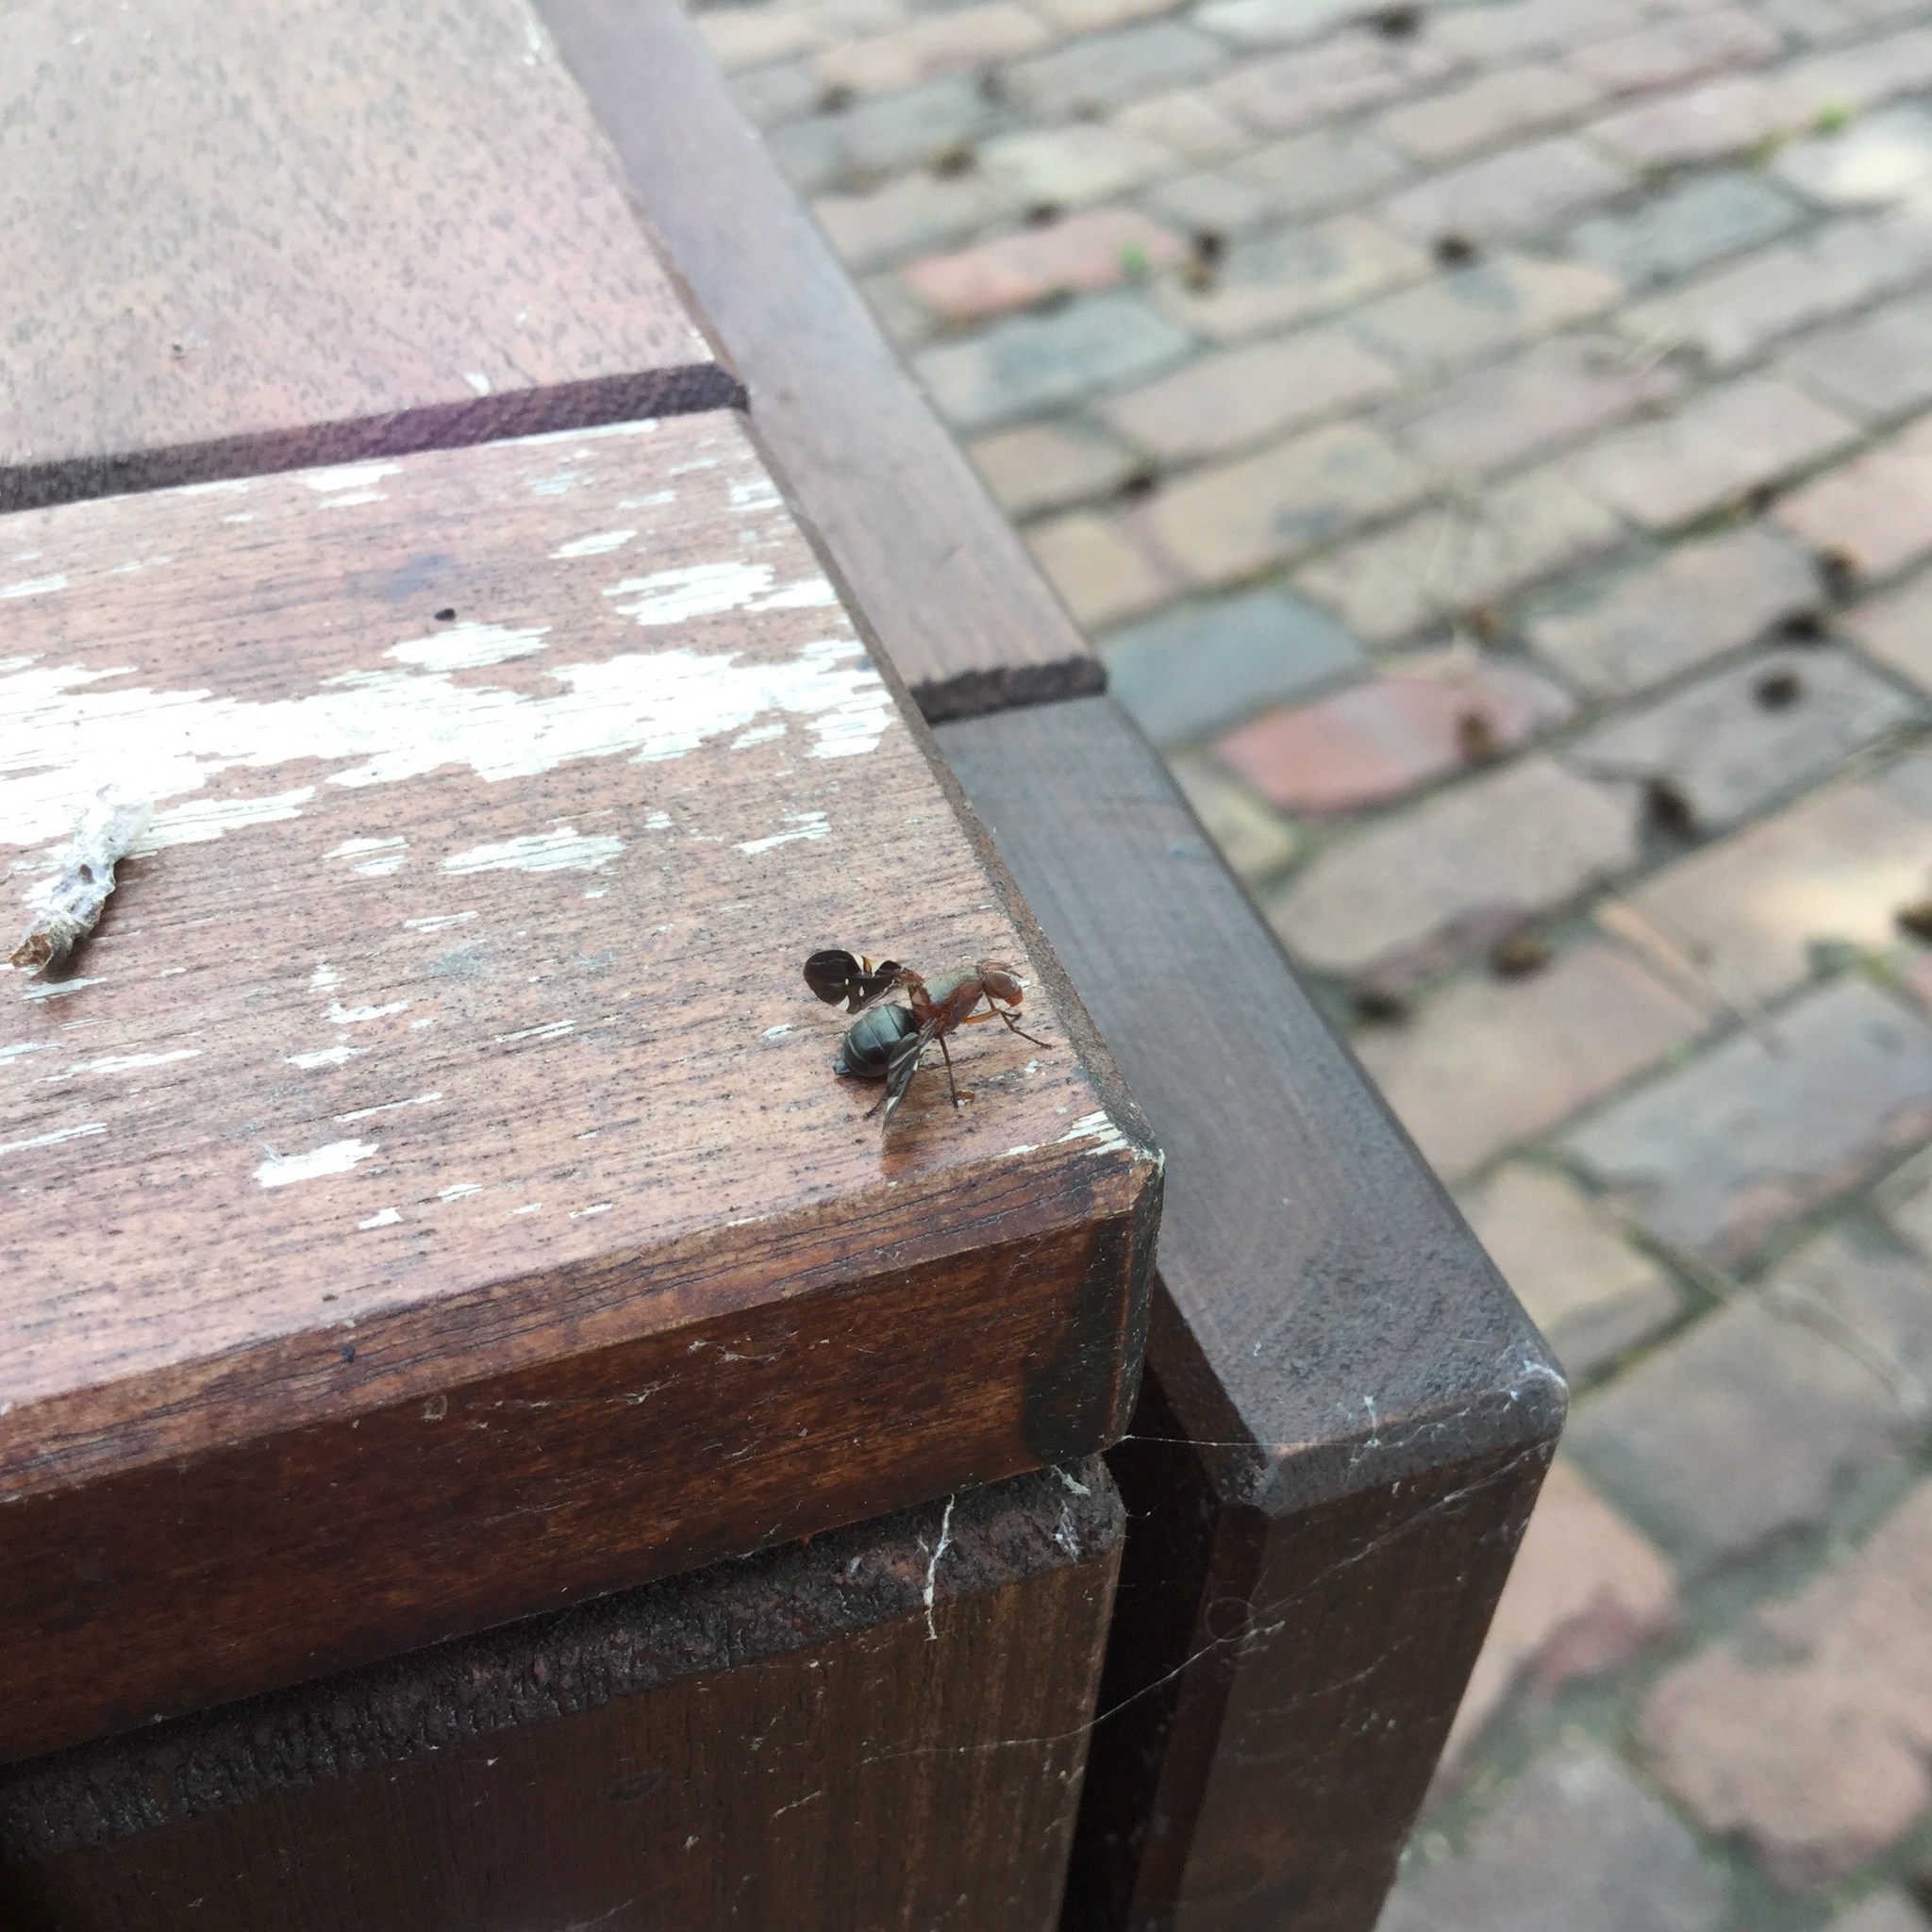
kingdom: Animalia
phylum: Arthropoda
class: Insecta
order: Diptera
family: Ulidiidae
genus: Delphinia
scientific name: Delphinia picta
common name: Common picture-winged fly
